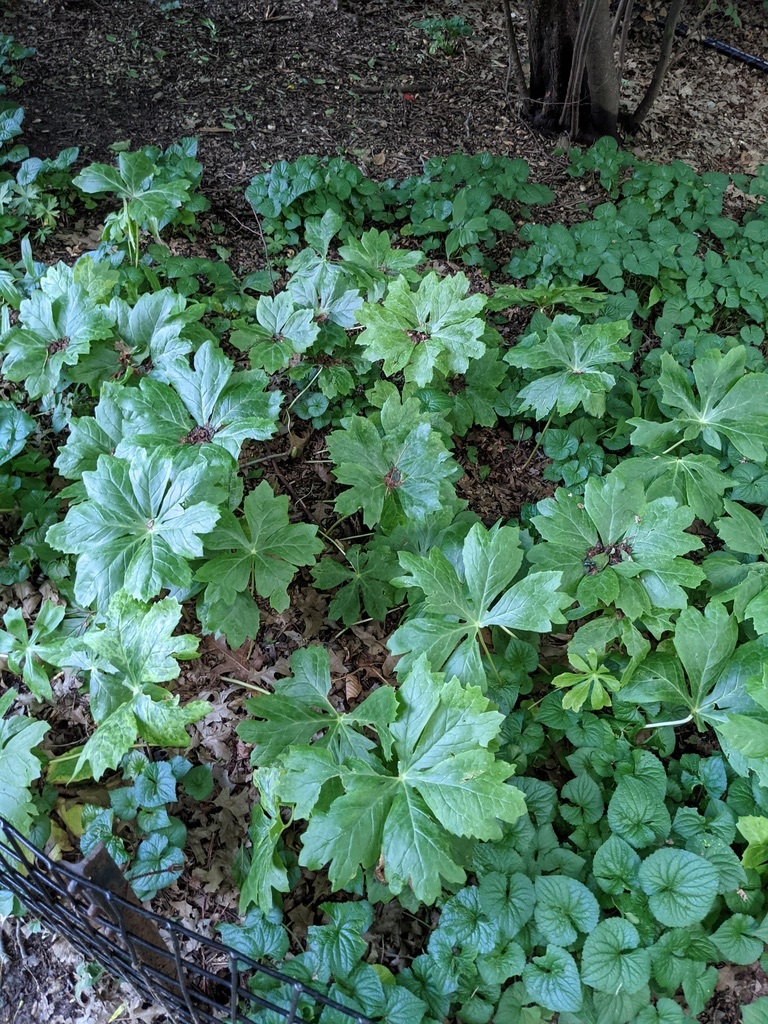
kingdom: Plantae
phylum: Tracheophyta
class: Magnoliopsida
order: Ranunculales
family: Berberidaceae
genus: Podophyllum
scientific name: Podophyllum peltatum
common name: Wild mandrake
